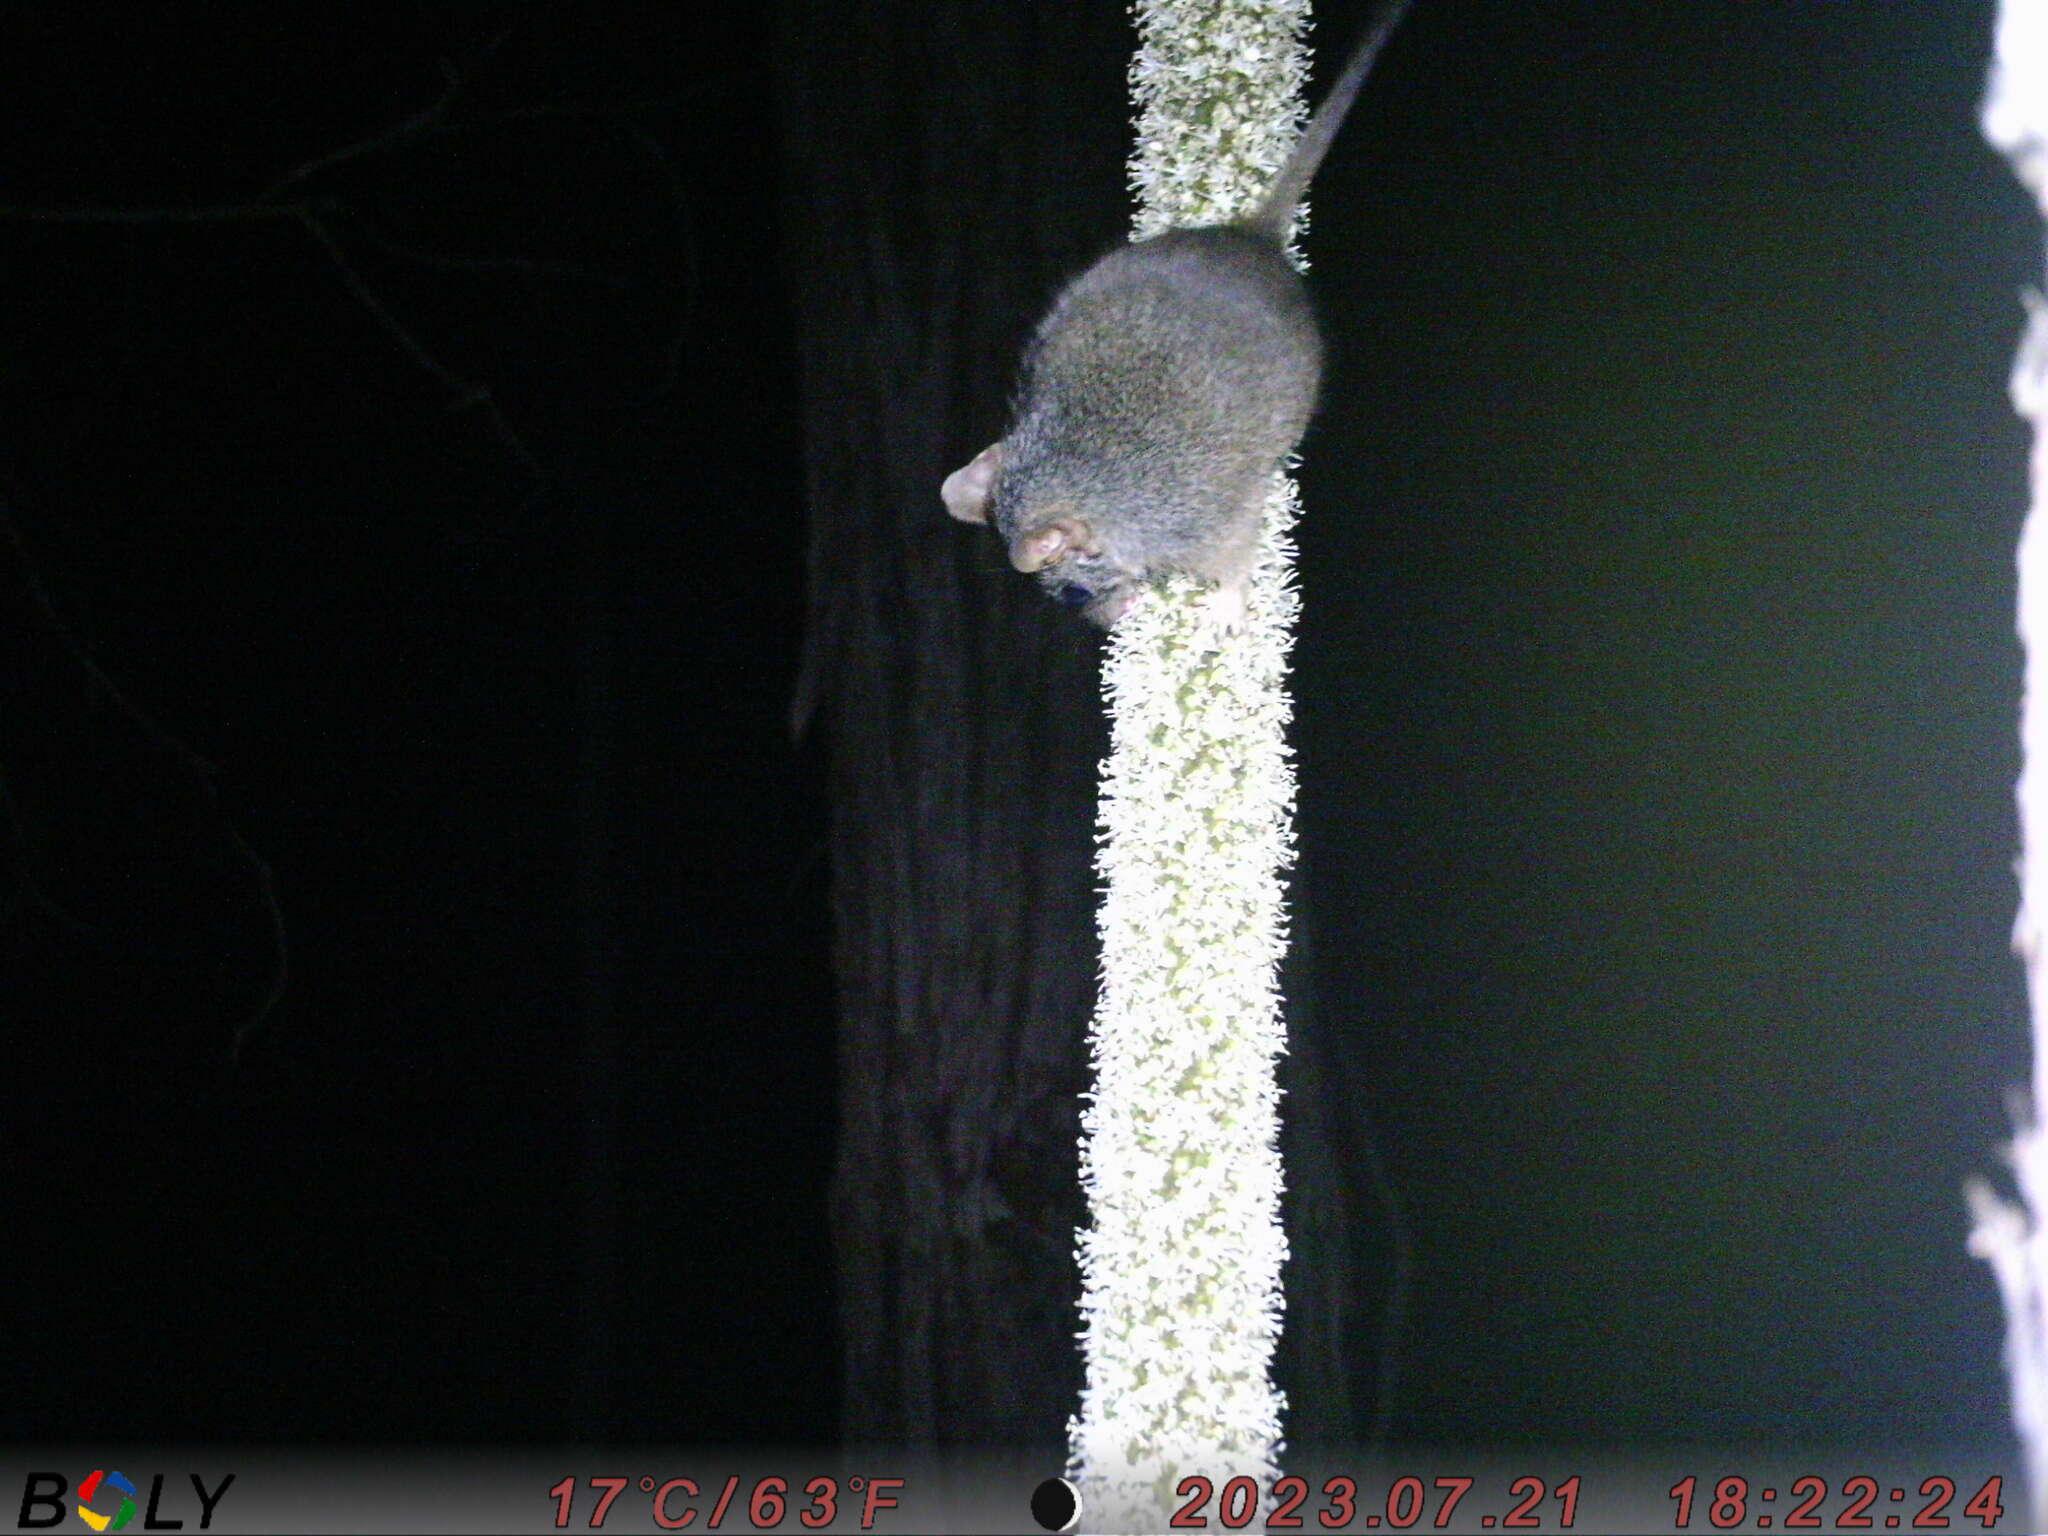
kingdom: Animalia
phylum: Chordata
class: Mammalia
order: Dasyuromorphia
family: Dasyuridae
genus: Antechinus
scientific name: Antechinus flavipes
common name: Yellow-footed antechinus
